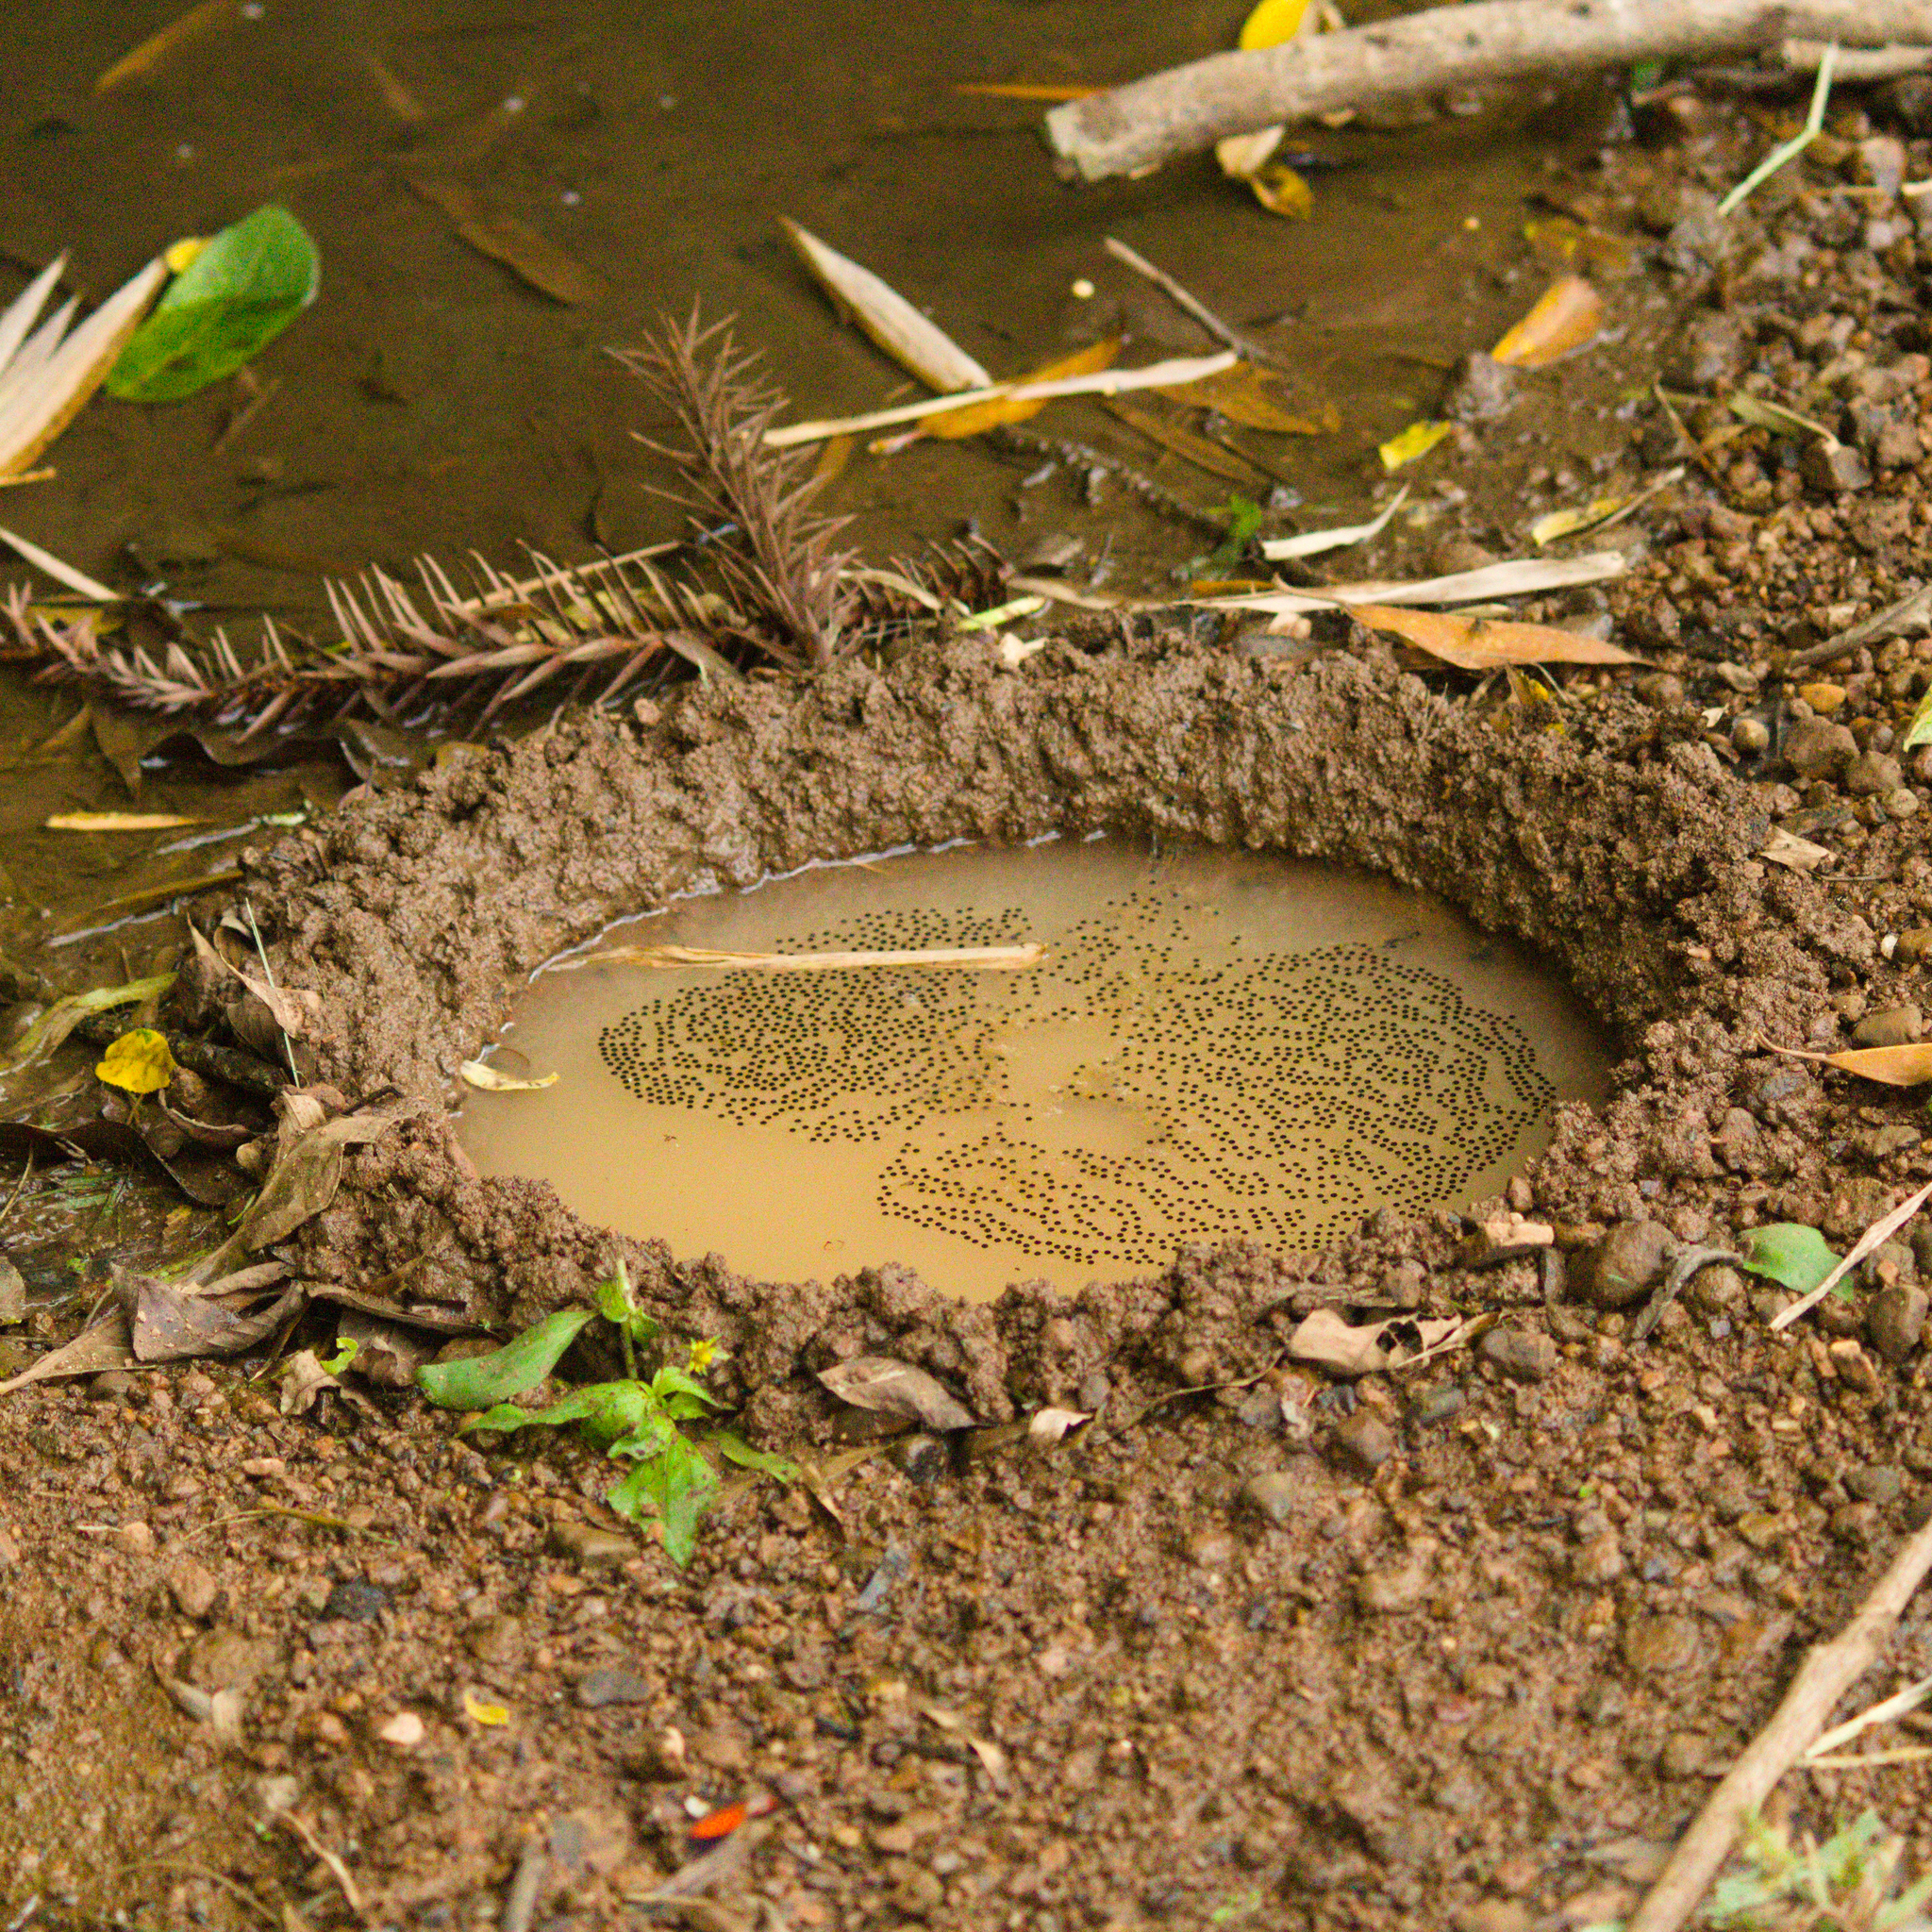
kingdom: Animalia
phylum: Chordata
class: Amphibia
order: Anura
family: Hylidae
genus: Boana
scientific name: Boana faber
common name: Blacksmith tree frog
